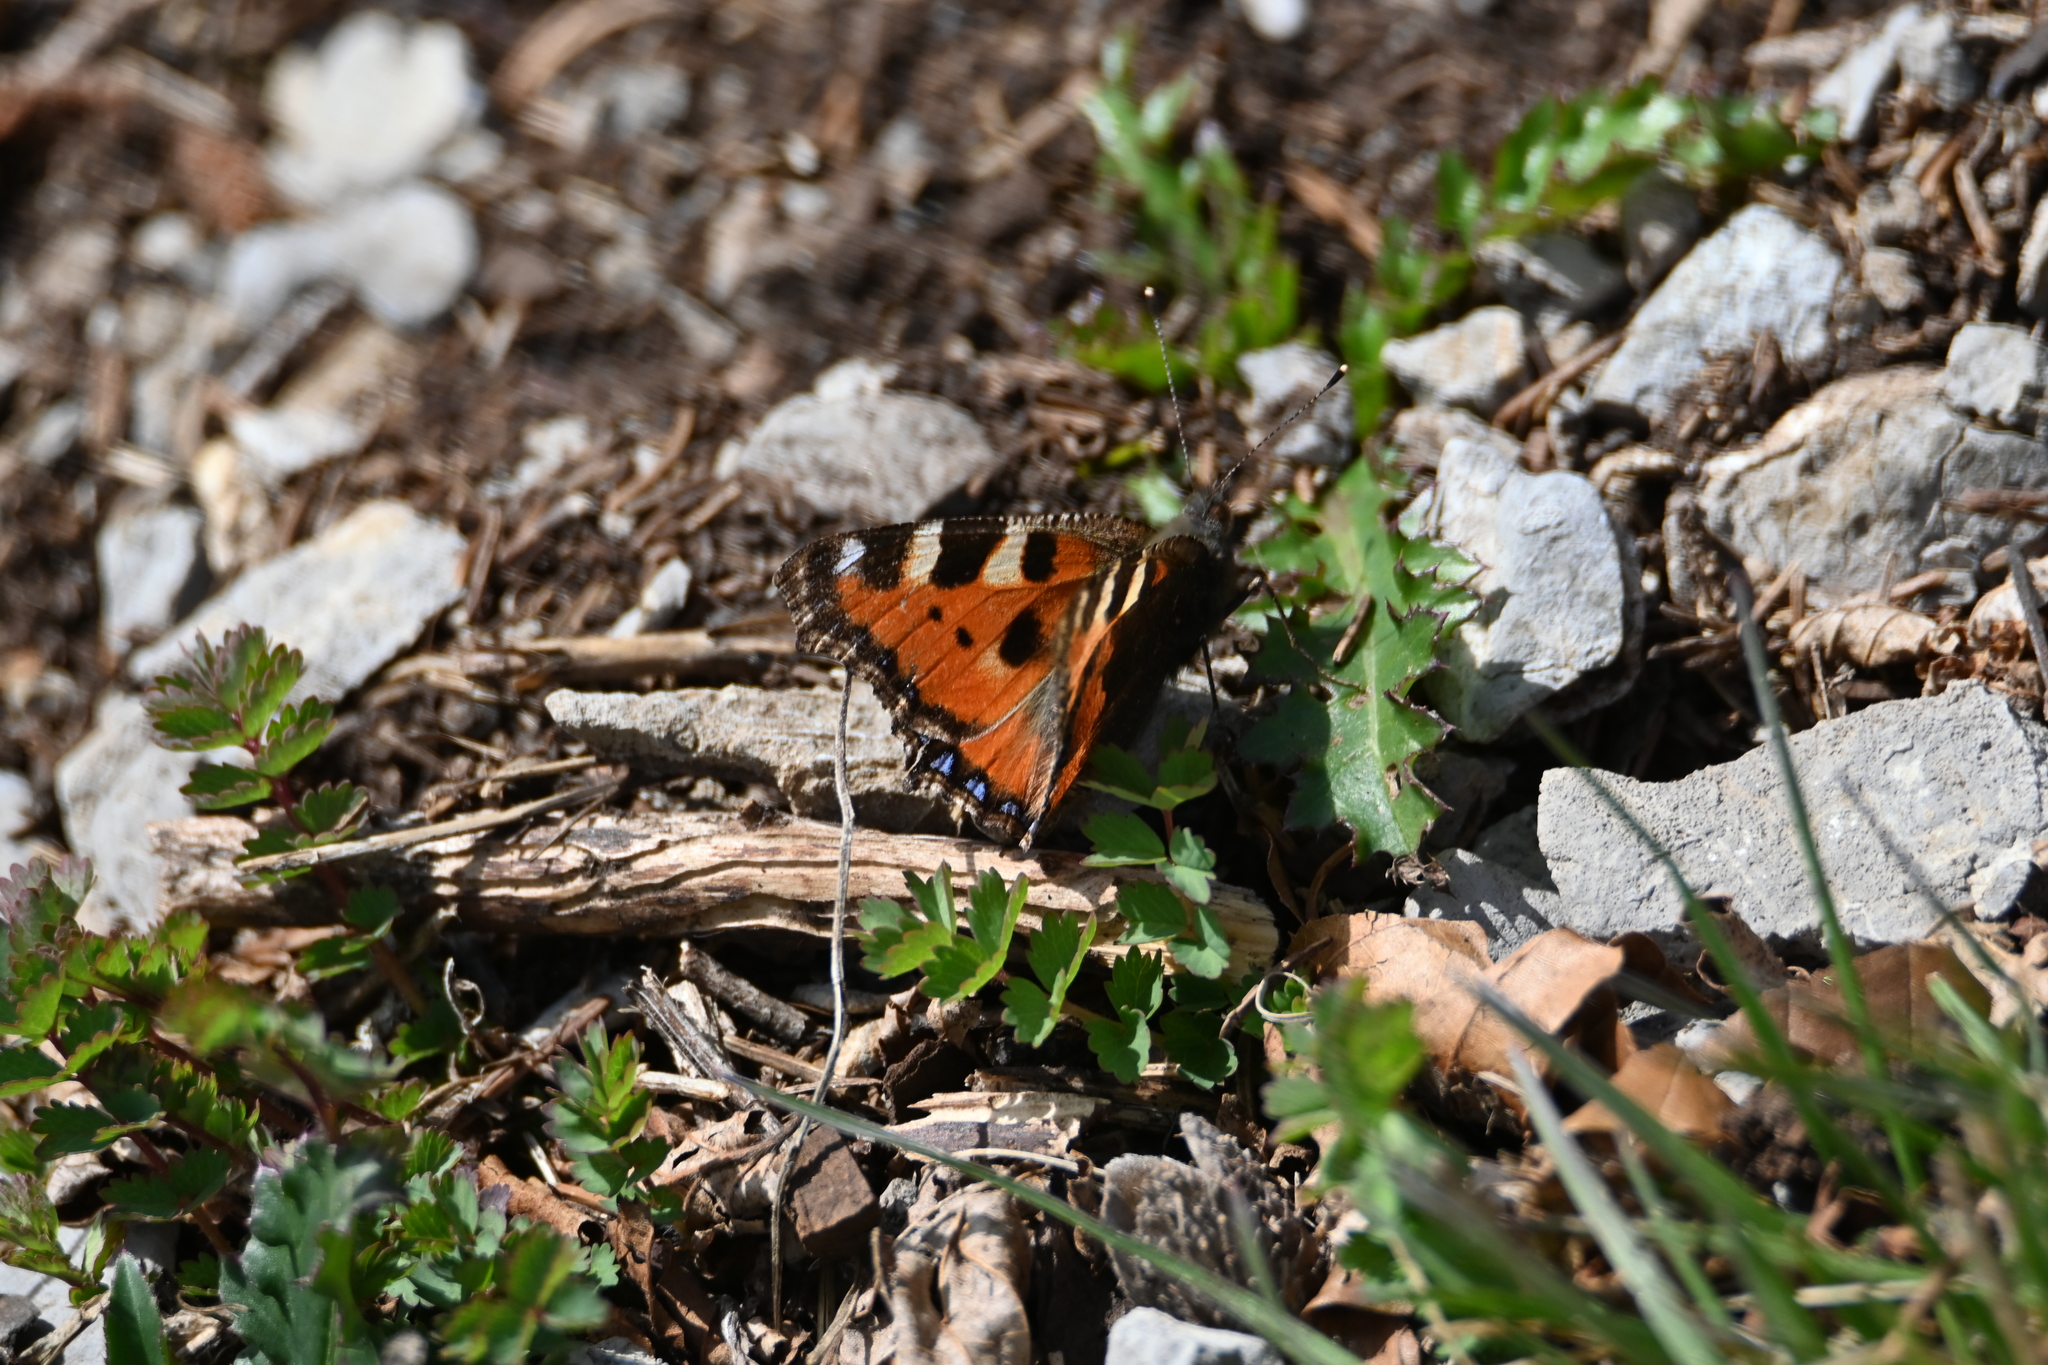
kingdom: Animalia
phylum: Arthropoda
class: Insecta
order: Lepidoptera
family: Nymphalidae
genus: Aglais
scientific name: Aglais urticae
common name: Small tortoiseshell
